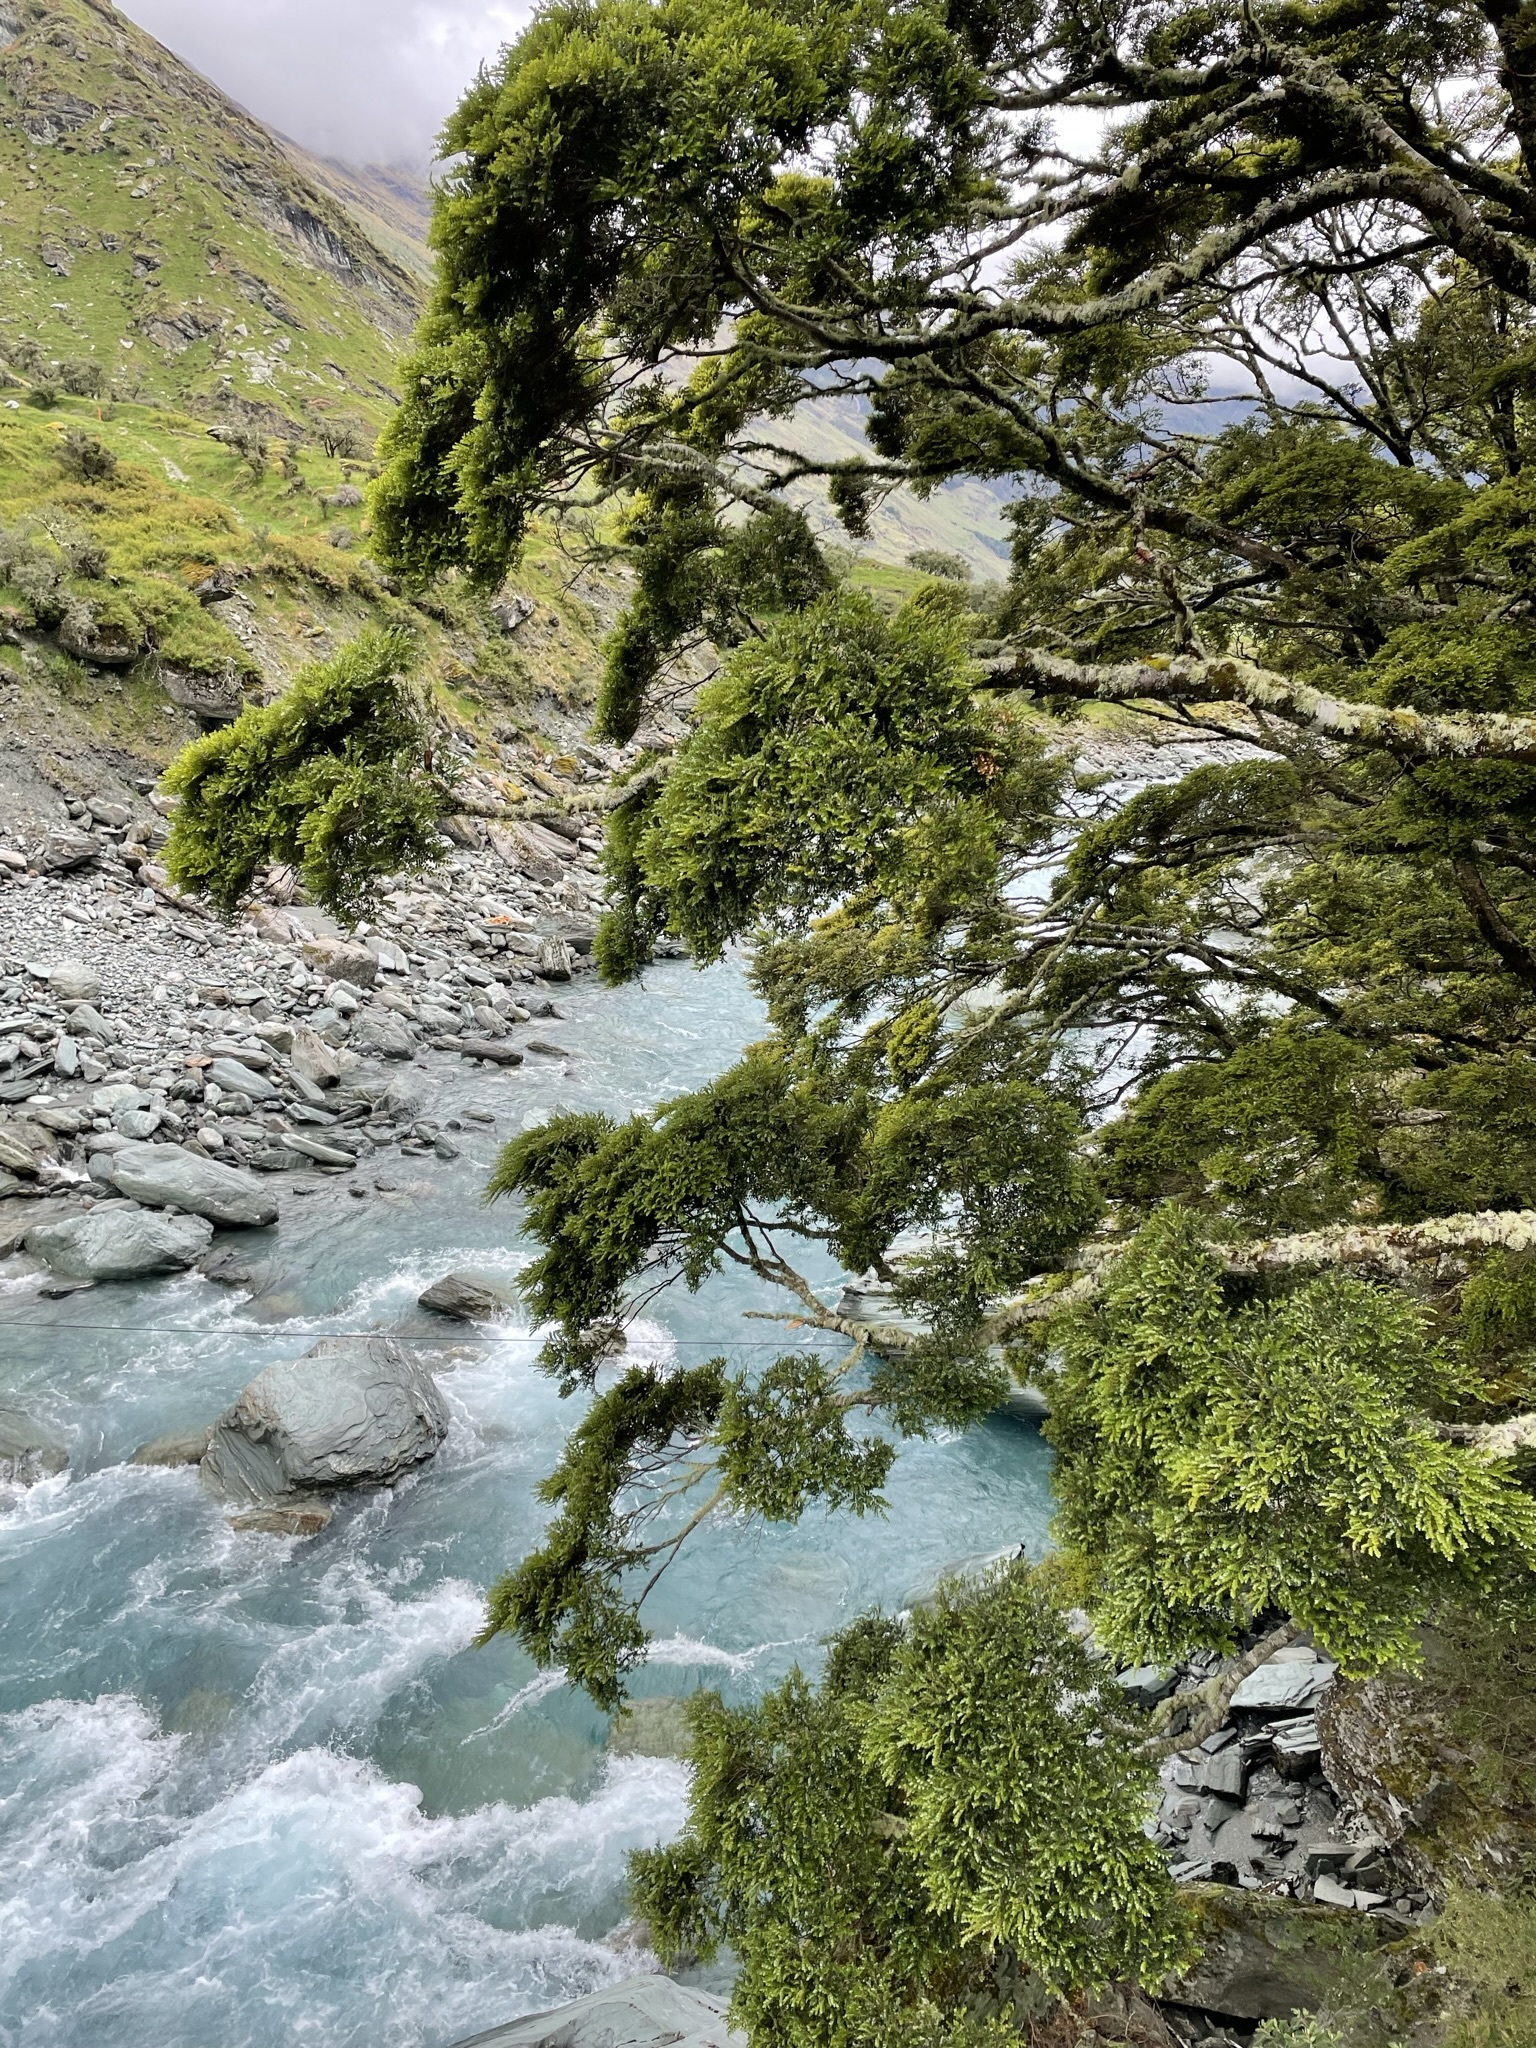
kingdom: Plantae
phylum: Tracheophyta
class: Magnoliopsida
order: Fagales
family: Nothofagaceae
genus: Nothofagus
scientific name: Nothofagus menziesii
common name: Silver beech
